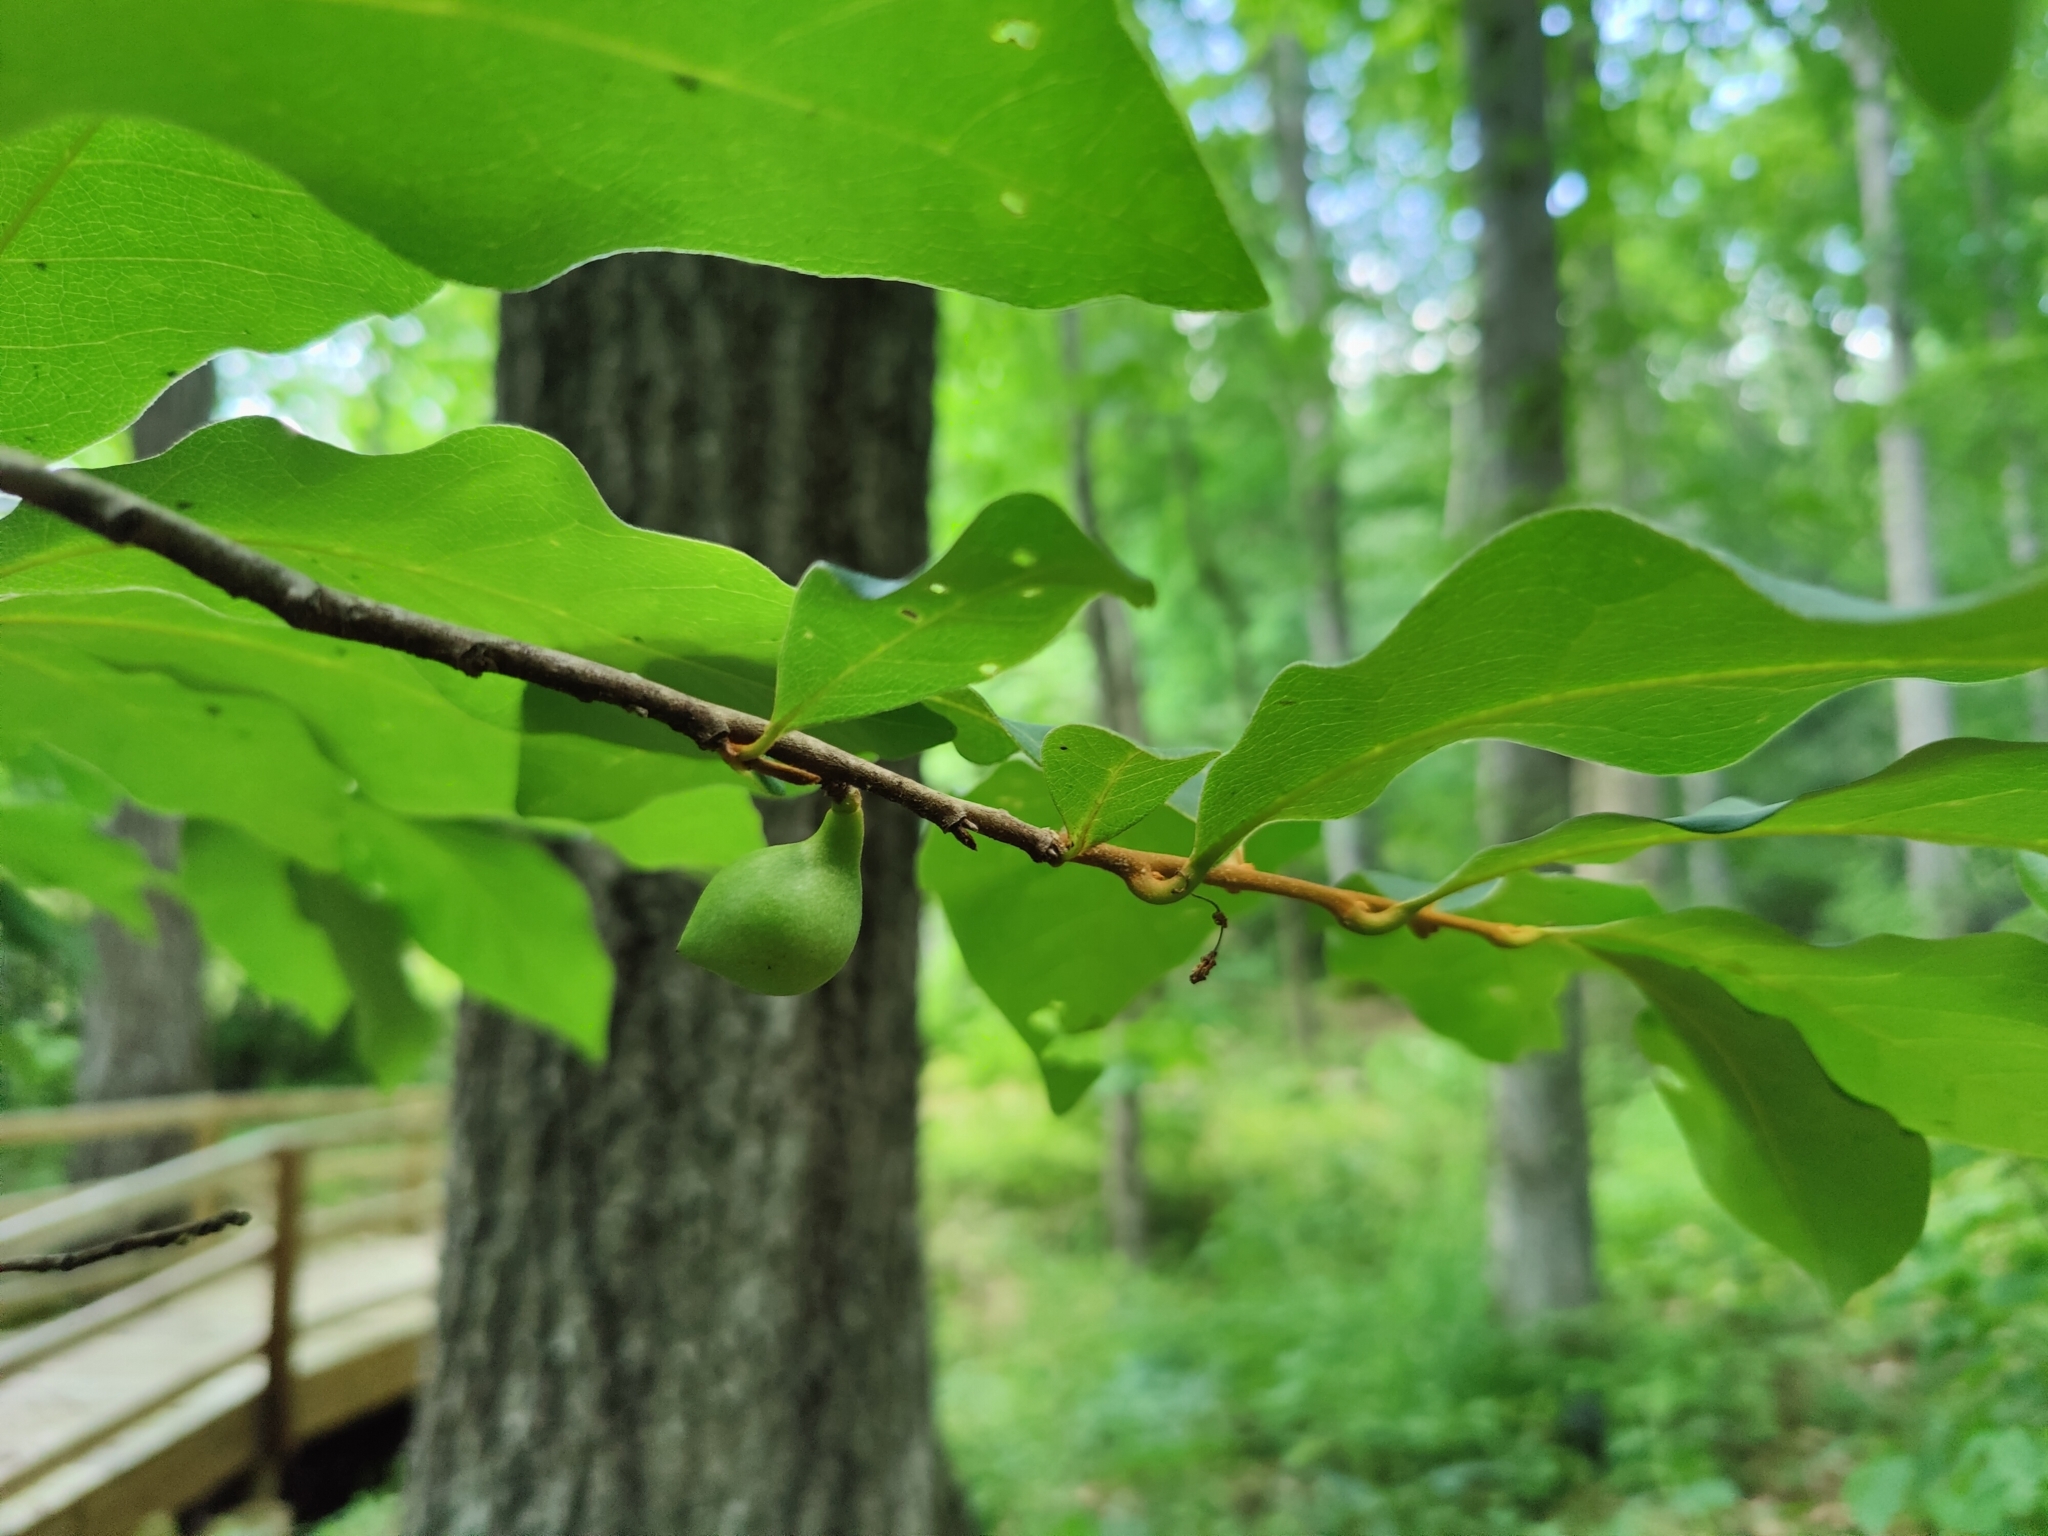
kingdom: Plantae
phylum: Tracheophyta
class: Magnoliopsida
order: Magnoliales
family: Annonaceae
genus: Asimina
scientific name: Asimina parviflora
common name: Dwarf pawpaw
